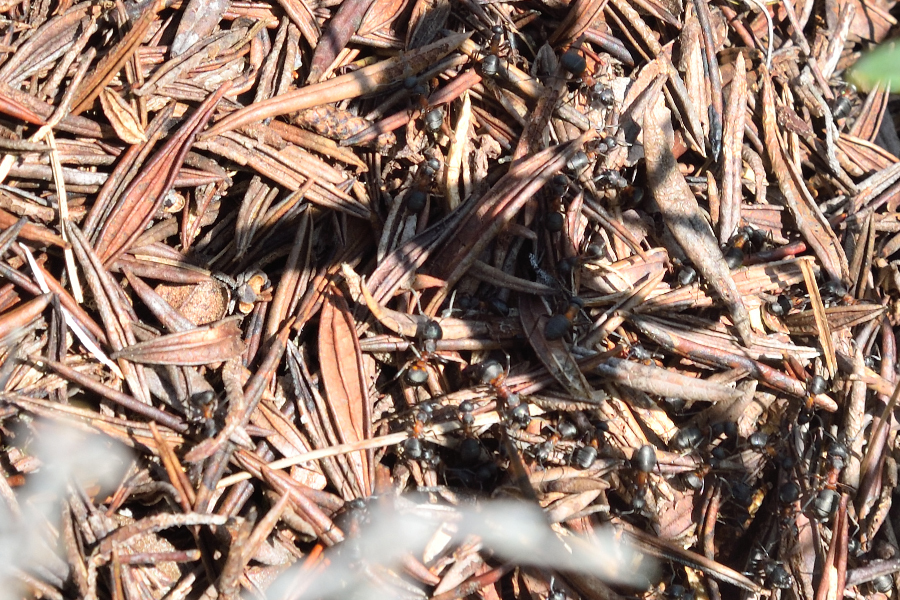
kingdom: Animalia
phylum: Arthropoda
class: Insecta
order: Hymenoptera
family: Formicidae
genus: Formica
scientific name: Formica uralensis
